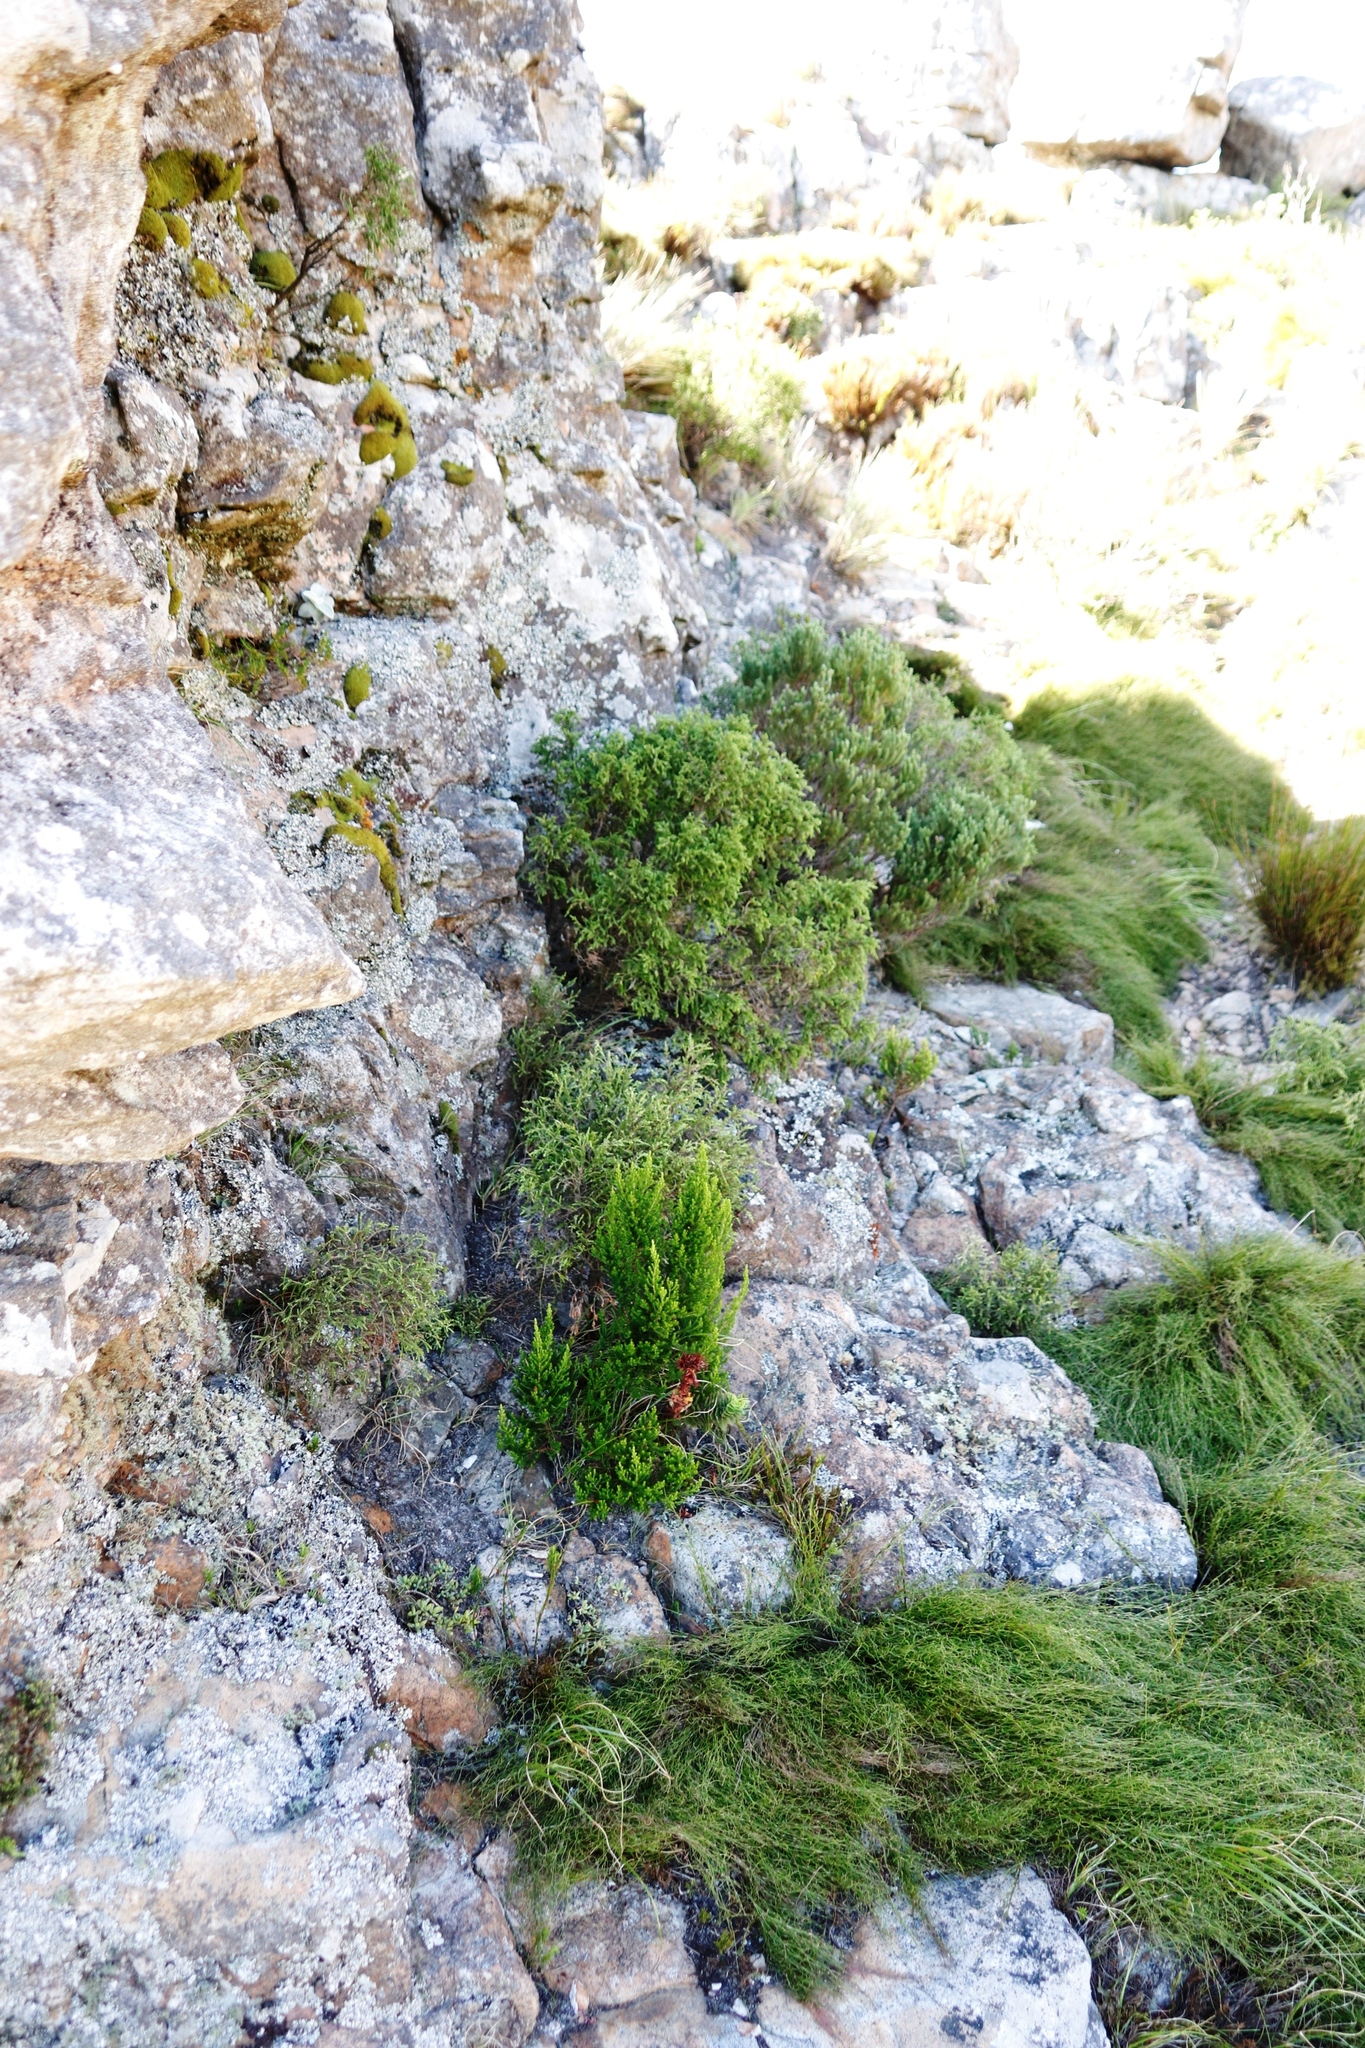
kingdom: Plantae
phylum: Tracheophyta
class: Magnoliopsida
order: Saxifragales
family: Crassulaceae
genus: Crassula
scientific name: Crassula coccinea
